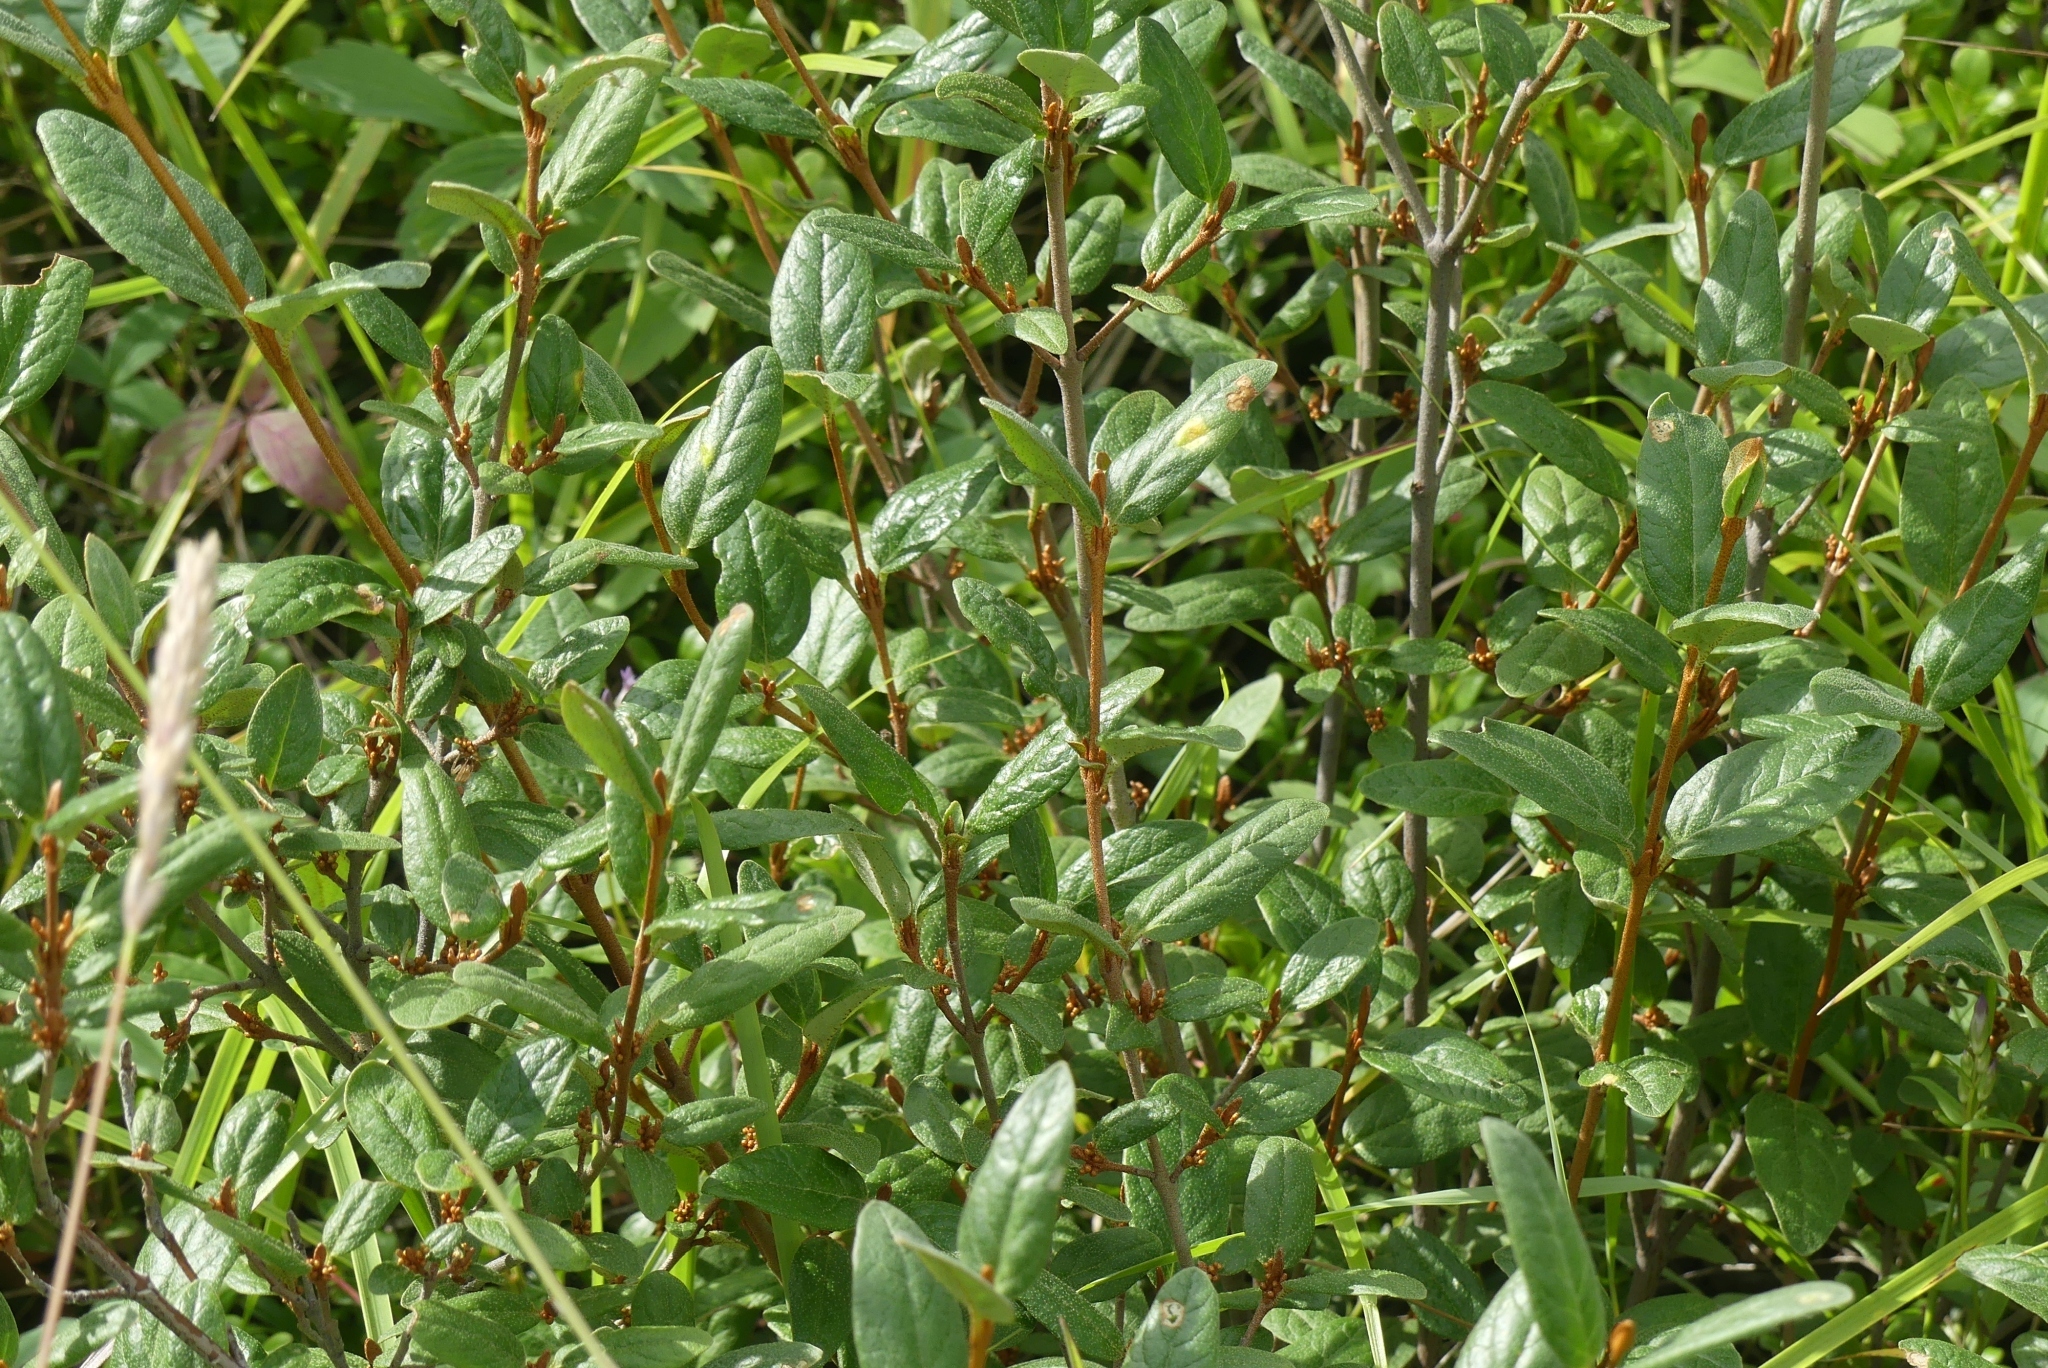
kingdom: Plantae
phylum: Tracheophyta
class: Magnoliopsida
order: Rosales
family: Elaeagnaceae
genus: Shepherdia
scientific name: Shepherdia canadensis
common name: Soapberry
